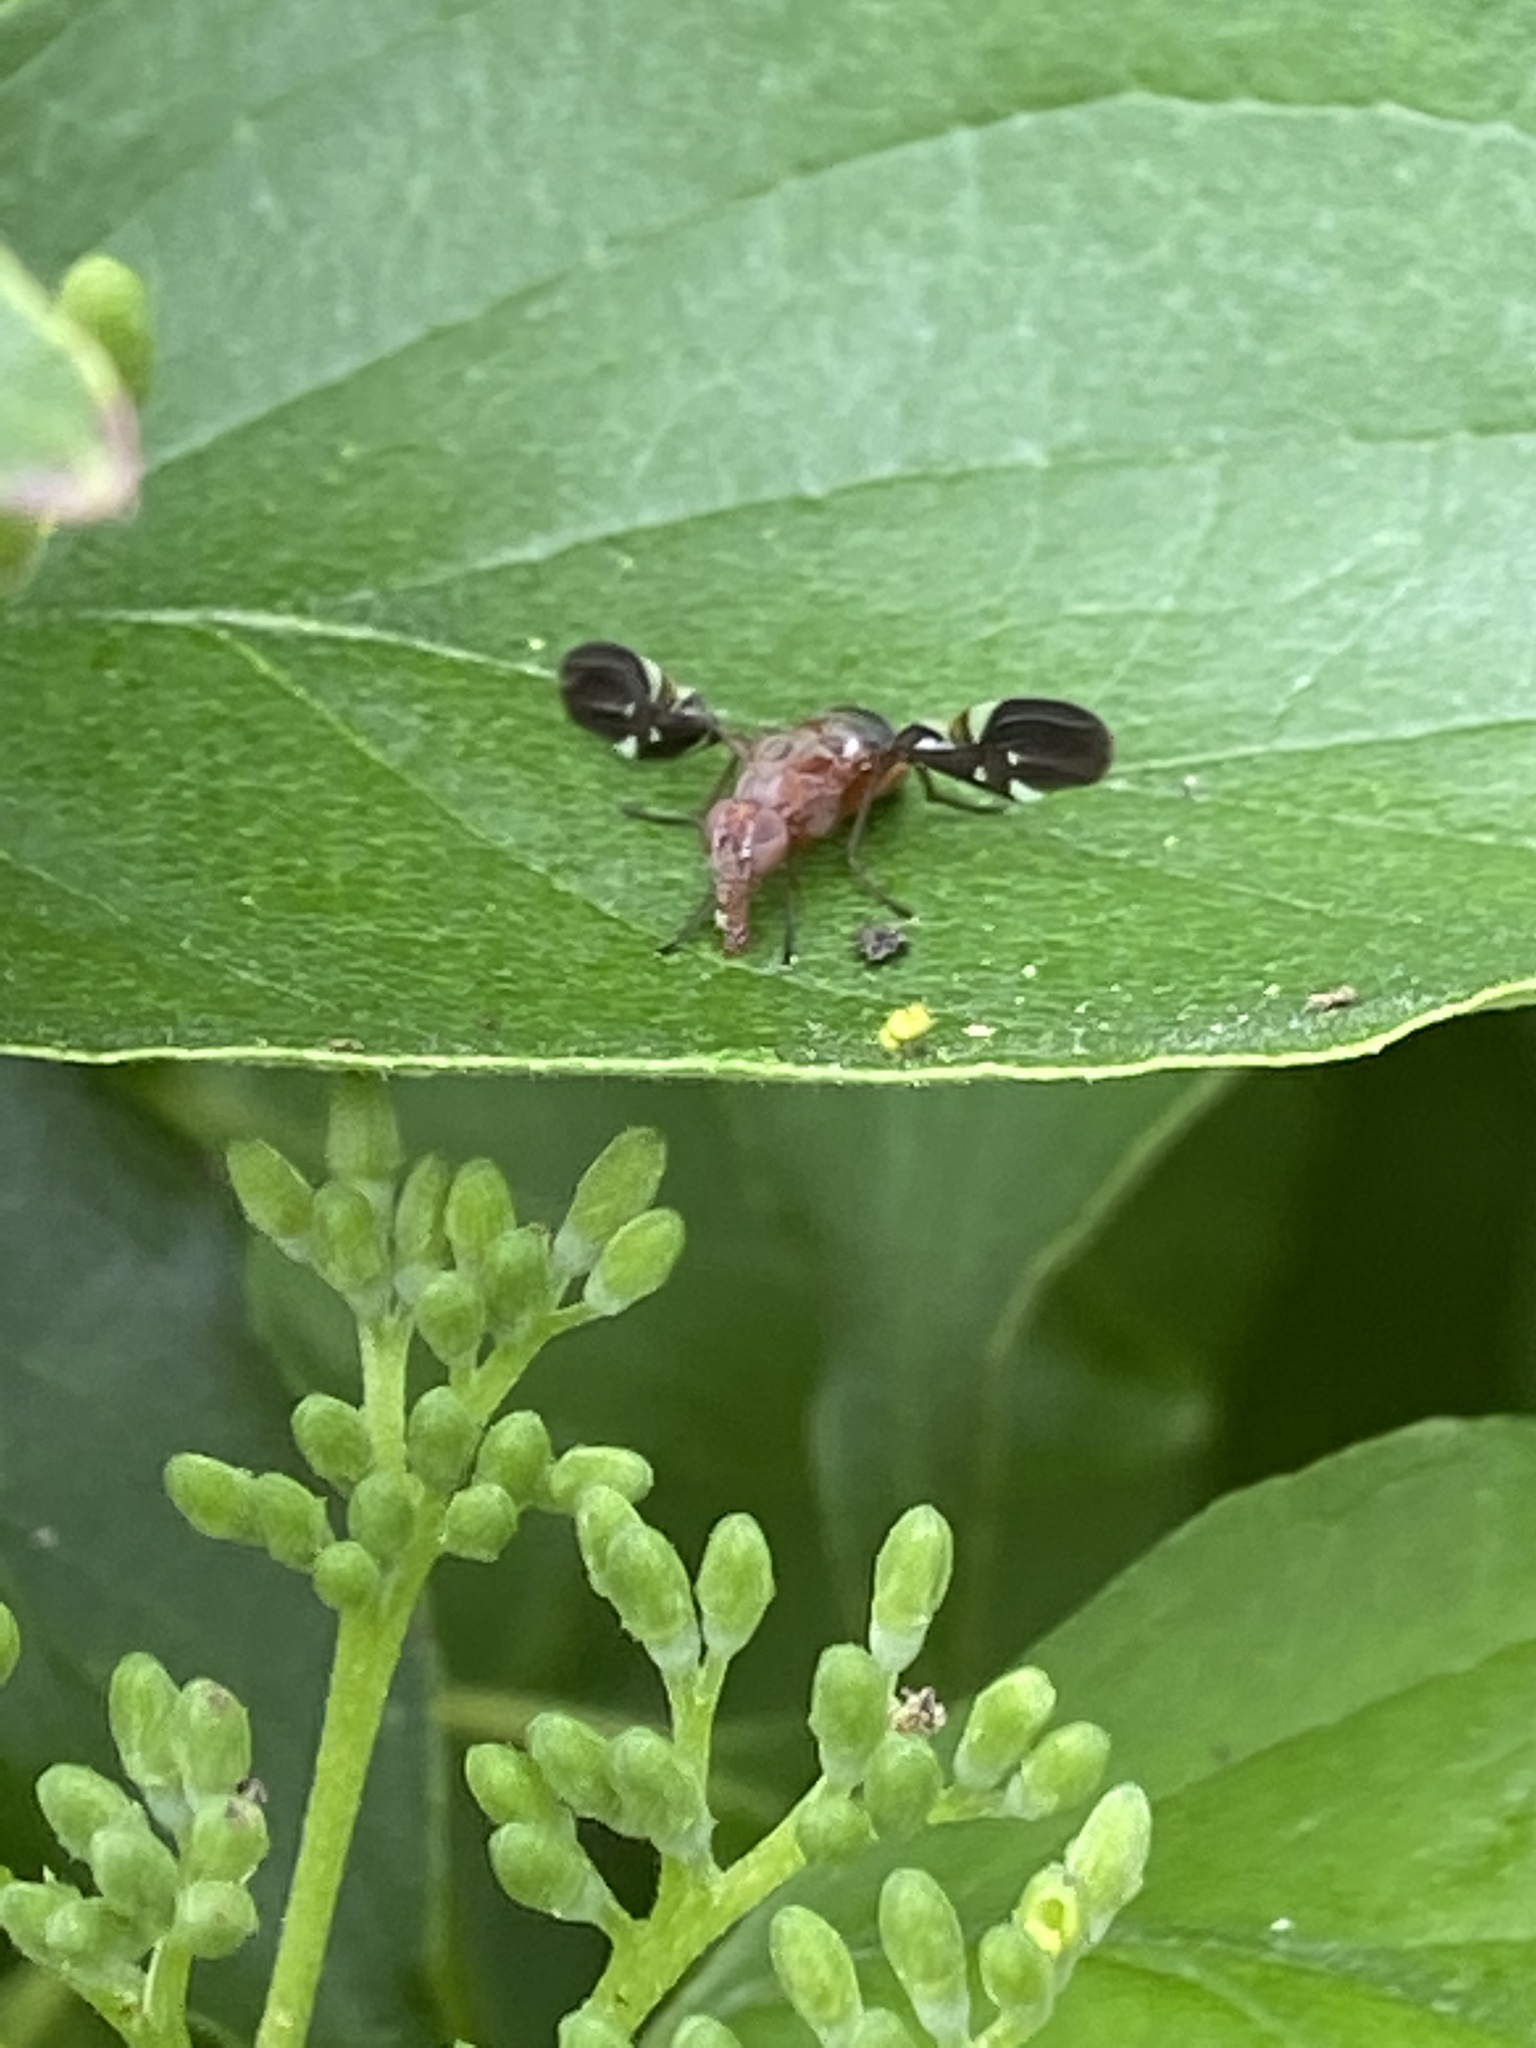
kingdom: Animalia
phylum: Arthropoda
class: Insecta
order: Diptera
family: Ulidiidae
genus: Delphinia
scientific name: Delphinia picta
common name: Common picture-winged fly
